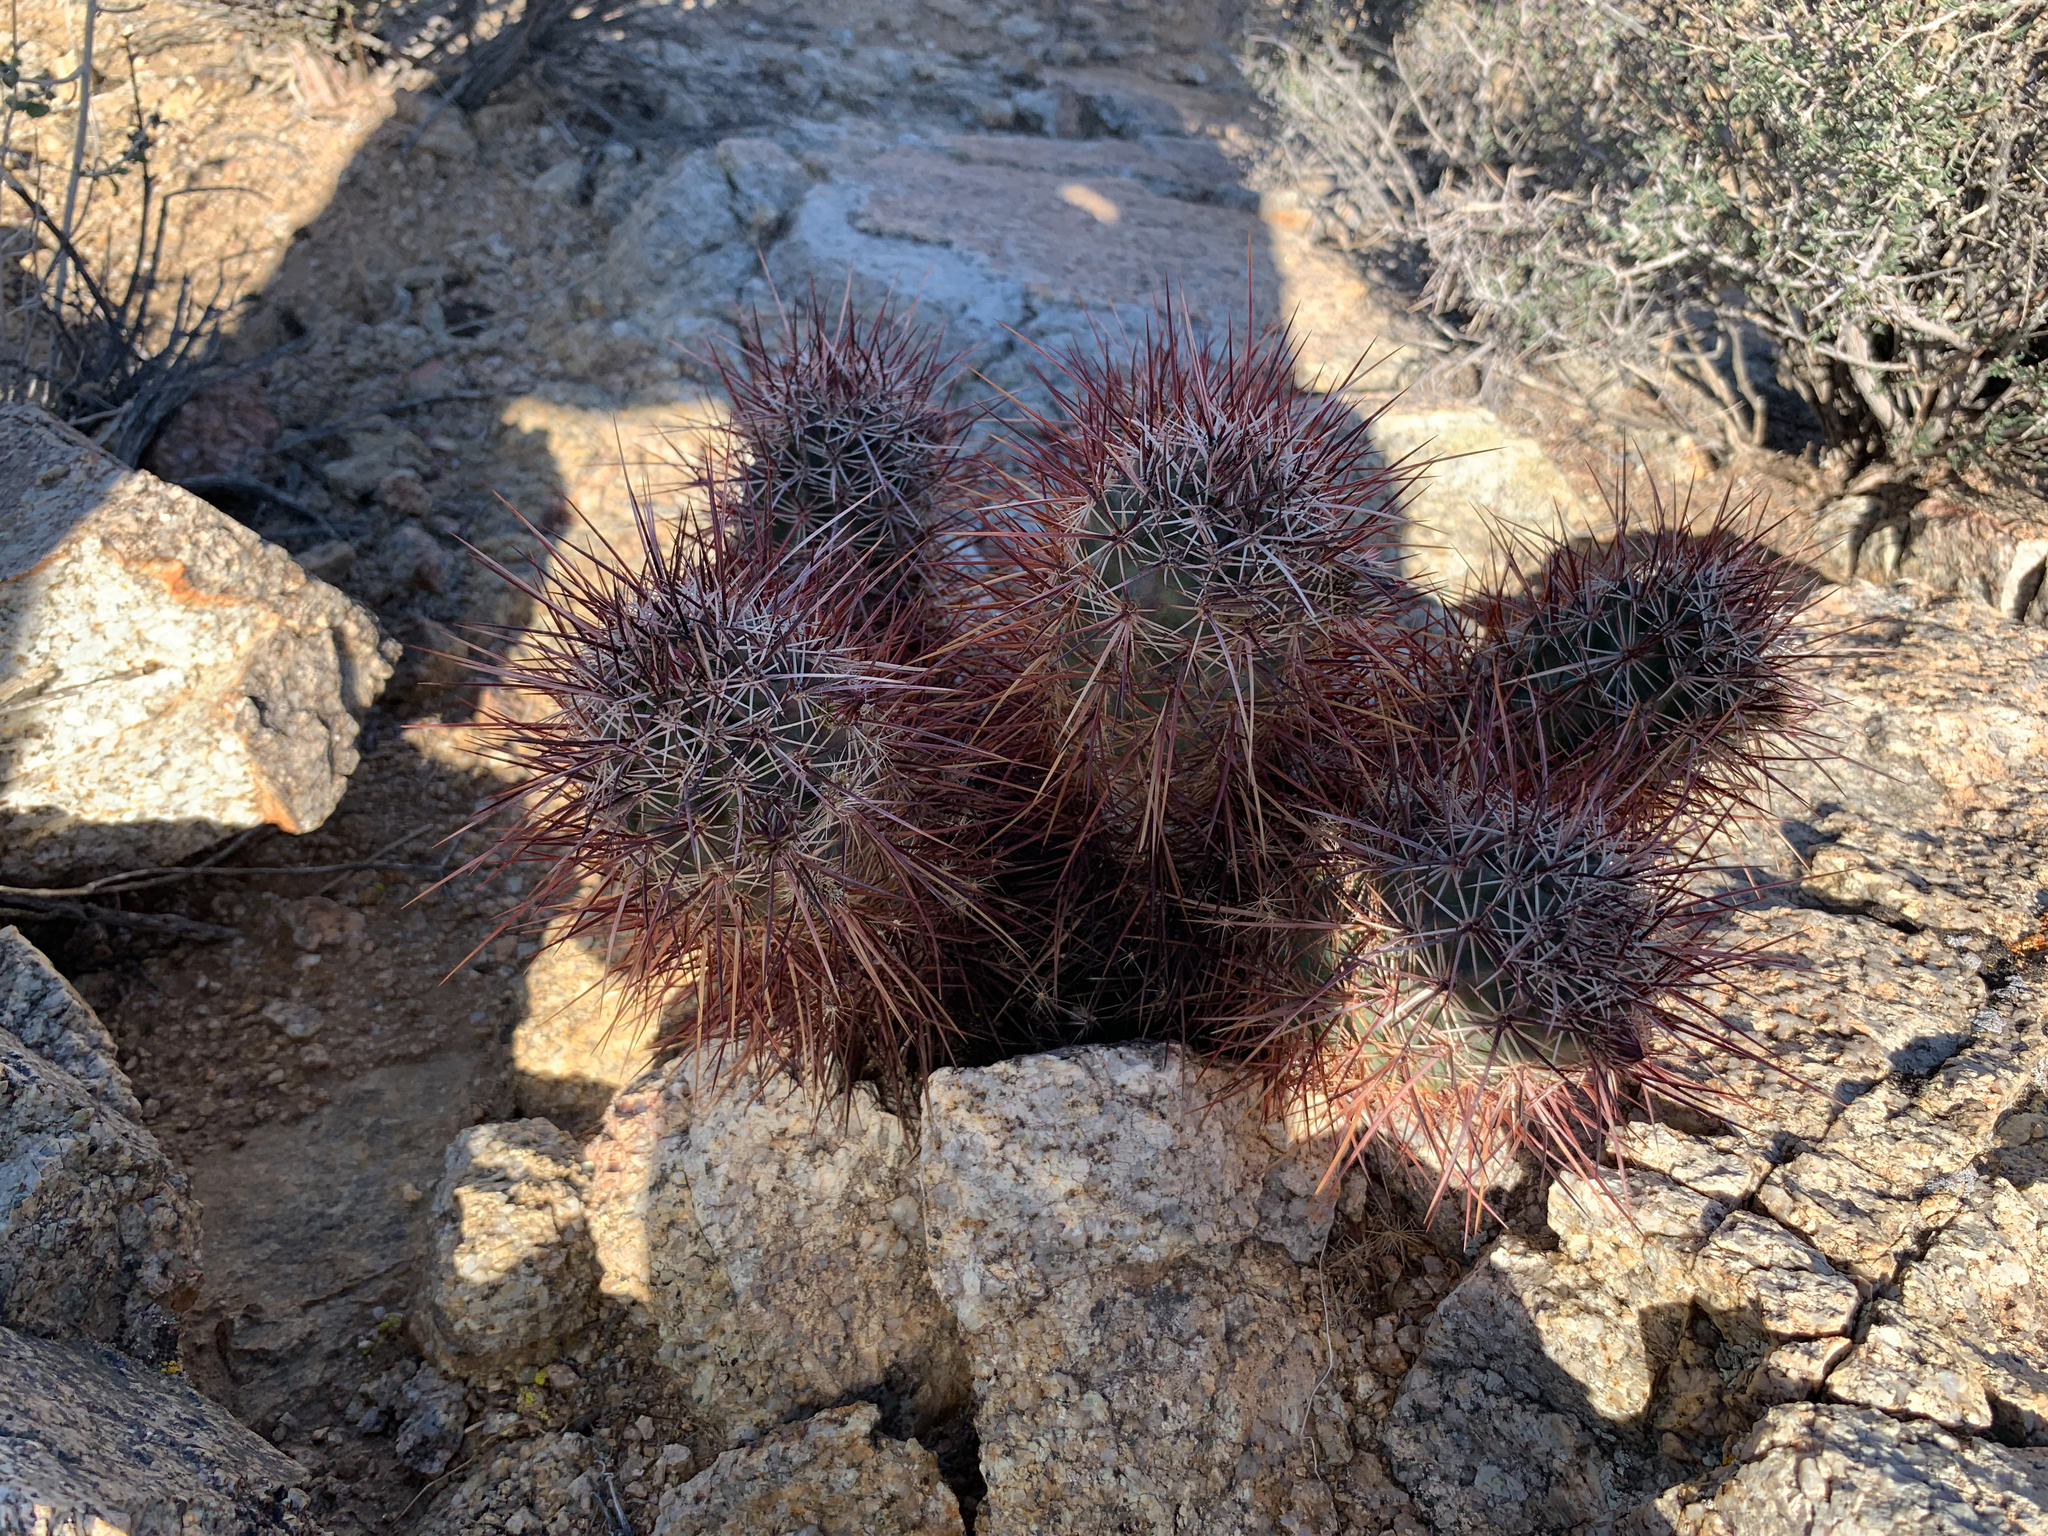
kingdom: Plantae
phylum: Tracheophyta
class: Magnoliopsida
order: Caryophyllales
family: Cactaceae
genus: Echinocereus
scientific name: Echinocereus engelmannii
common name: Engelmann's hedgehog cactus
